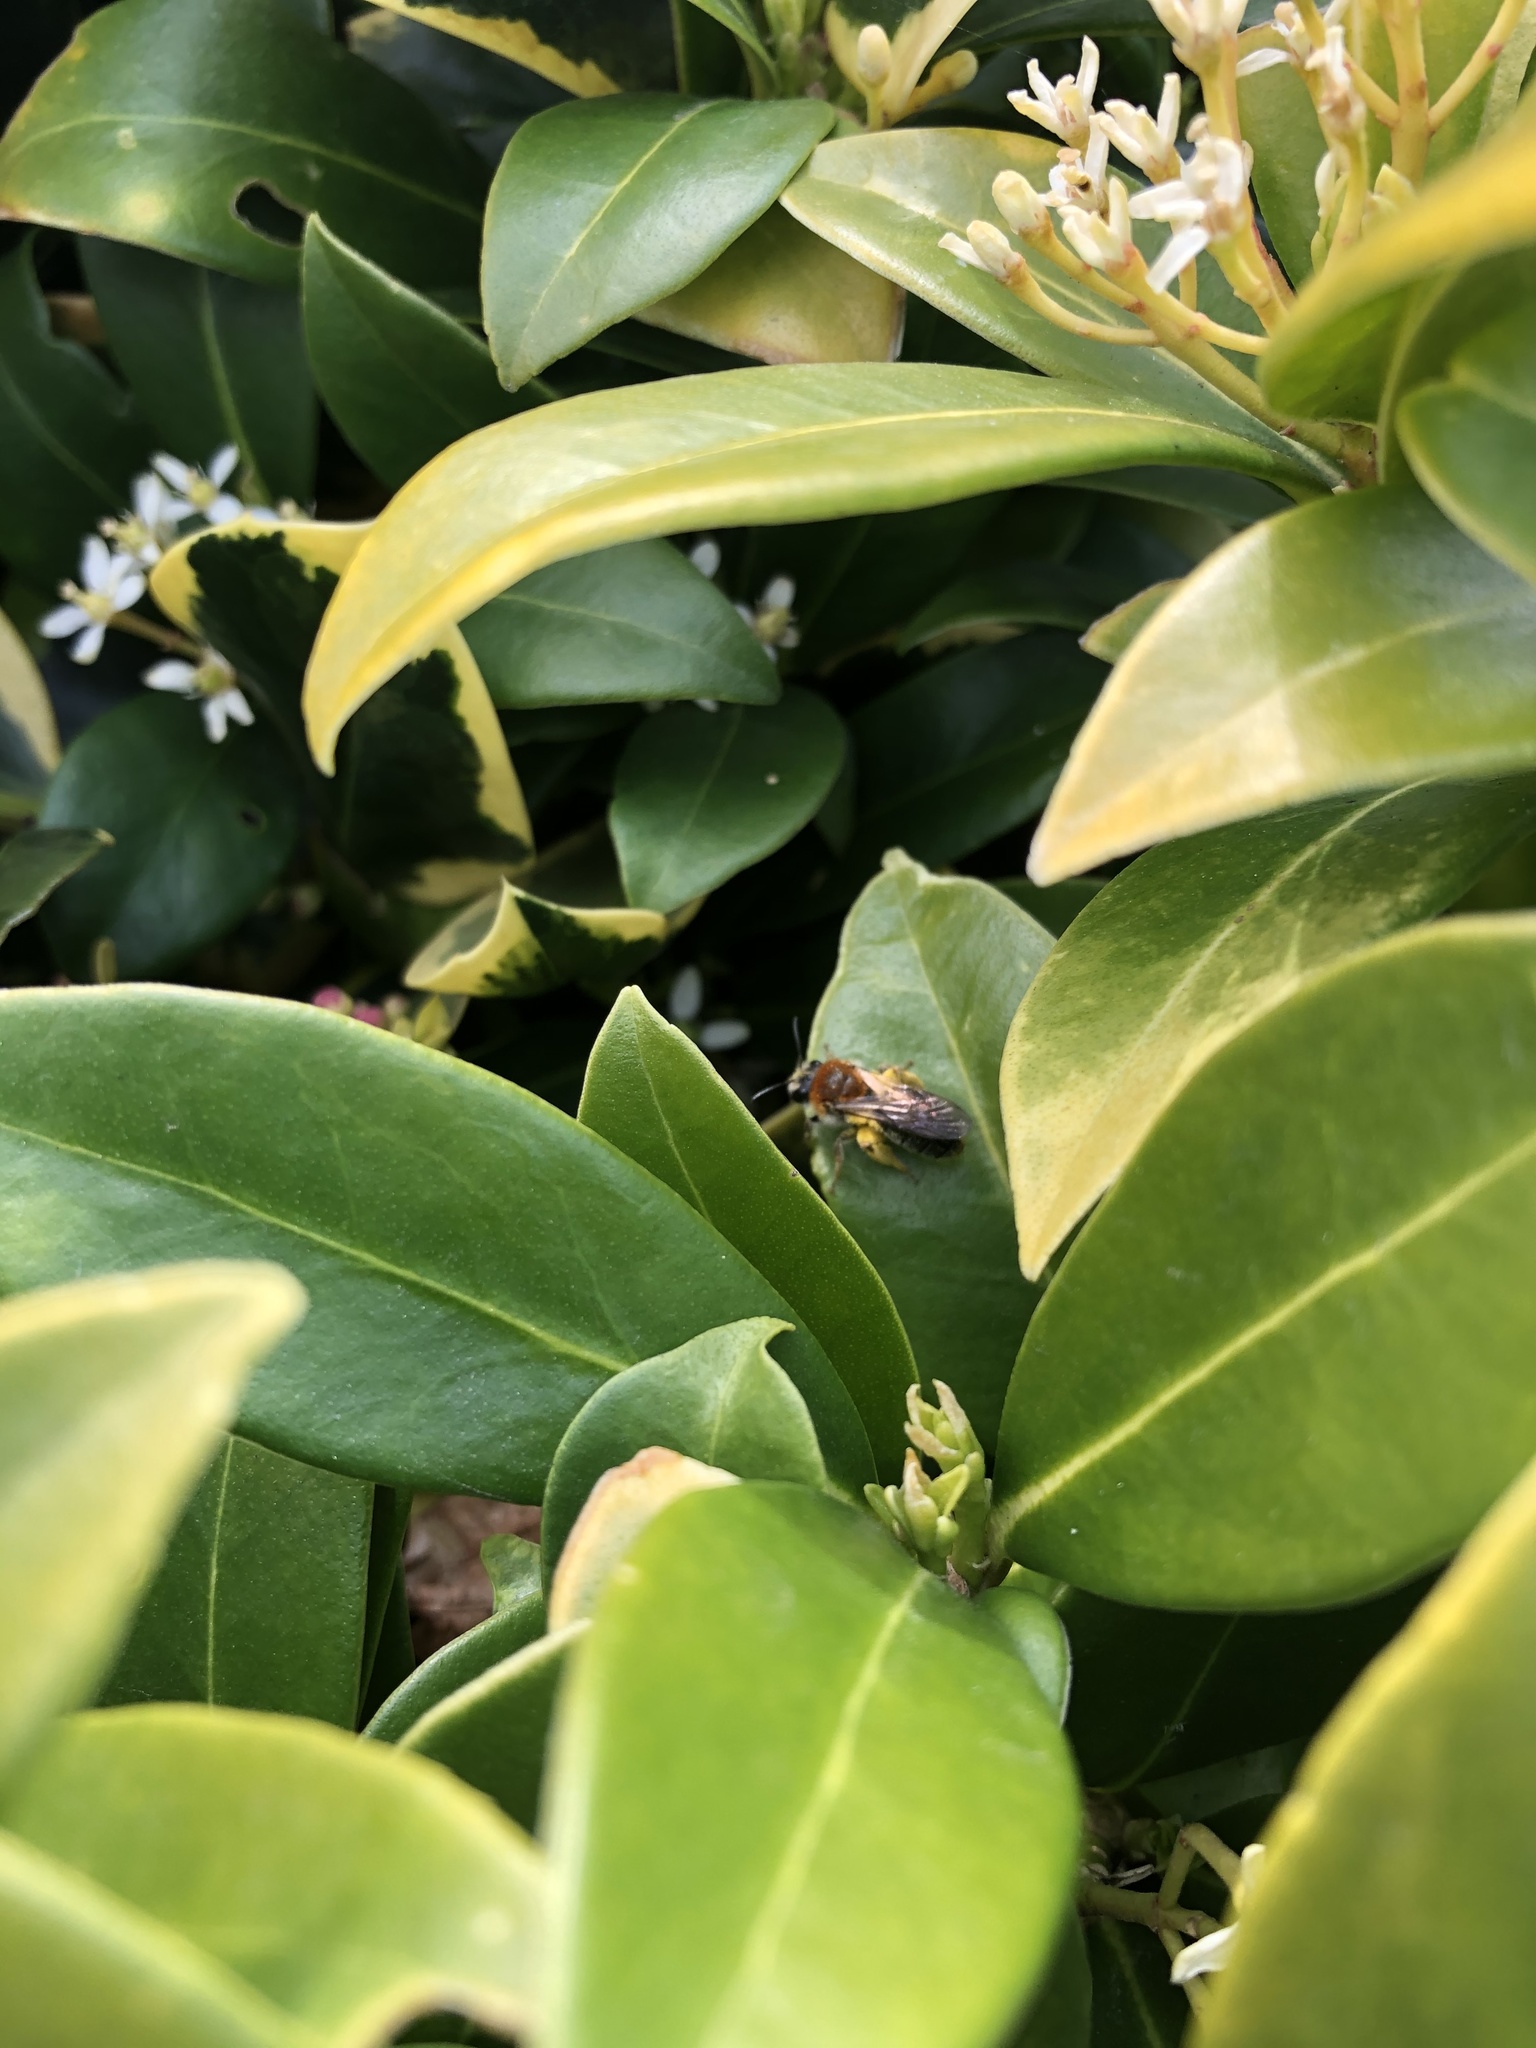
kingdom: Animalia
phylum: Arthropoda
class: Insecta
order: Hymenoptera
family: Andrenidae
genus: Andrena
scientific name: Andrena haemorrhoa
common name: Early mining bee
